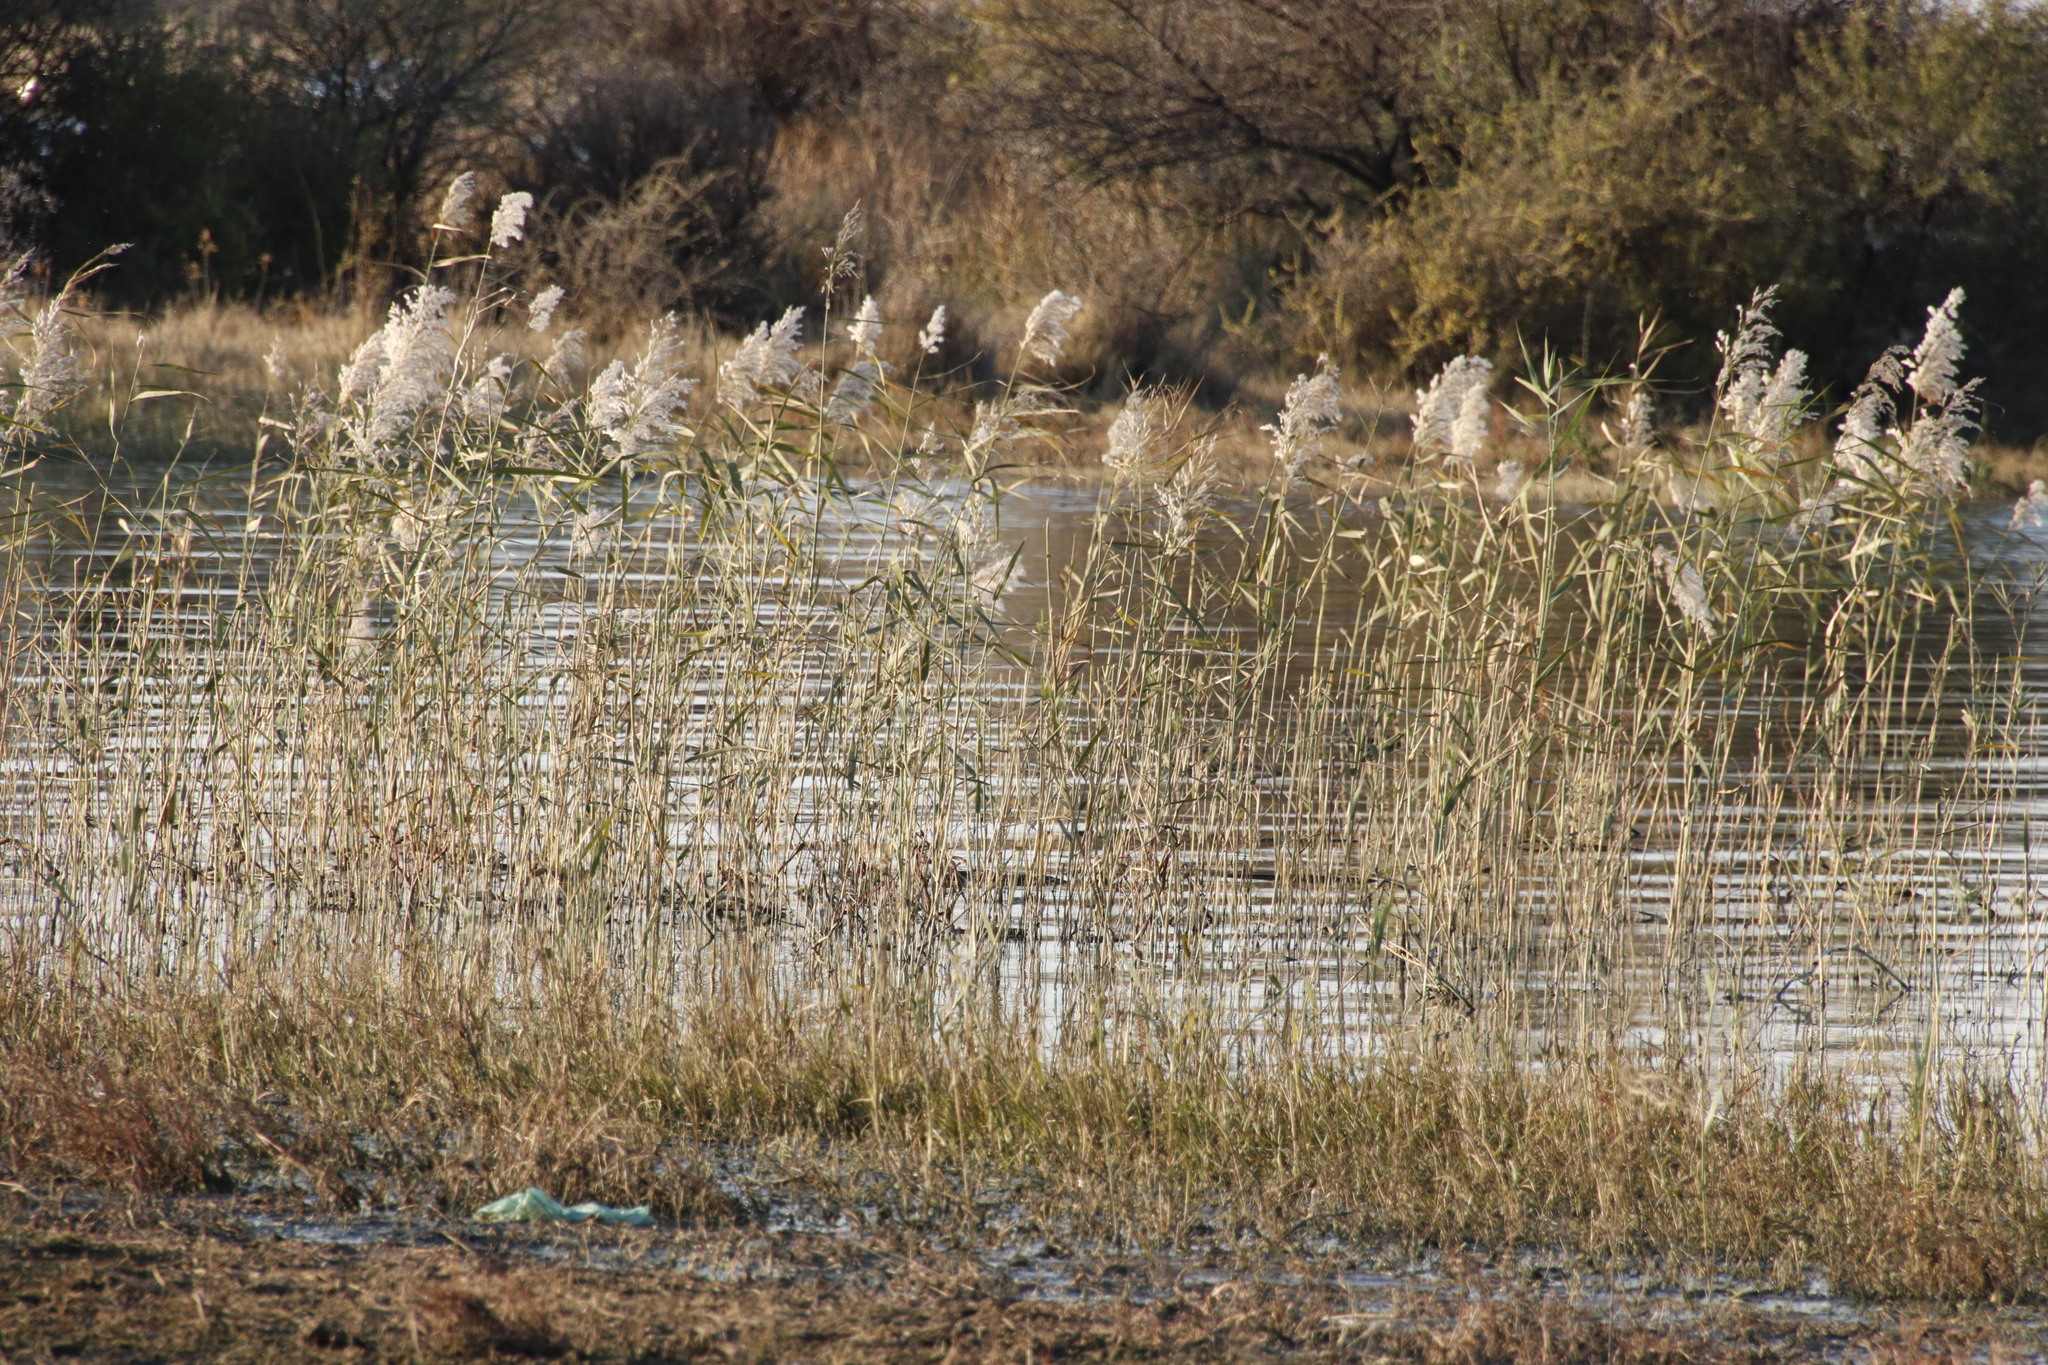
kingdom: Plantae
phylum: Tracheophyta
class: Liliopsida
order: Poales
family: Poaceae
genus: Phragmites
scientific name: Phragmites australis
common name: Common reed
